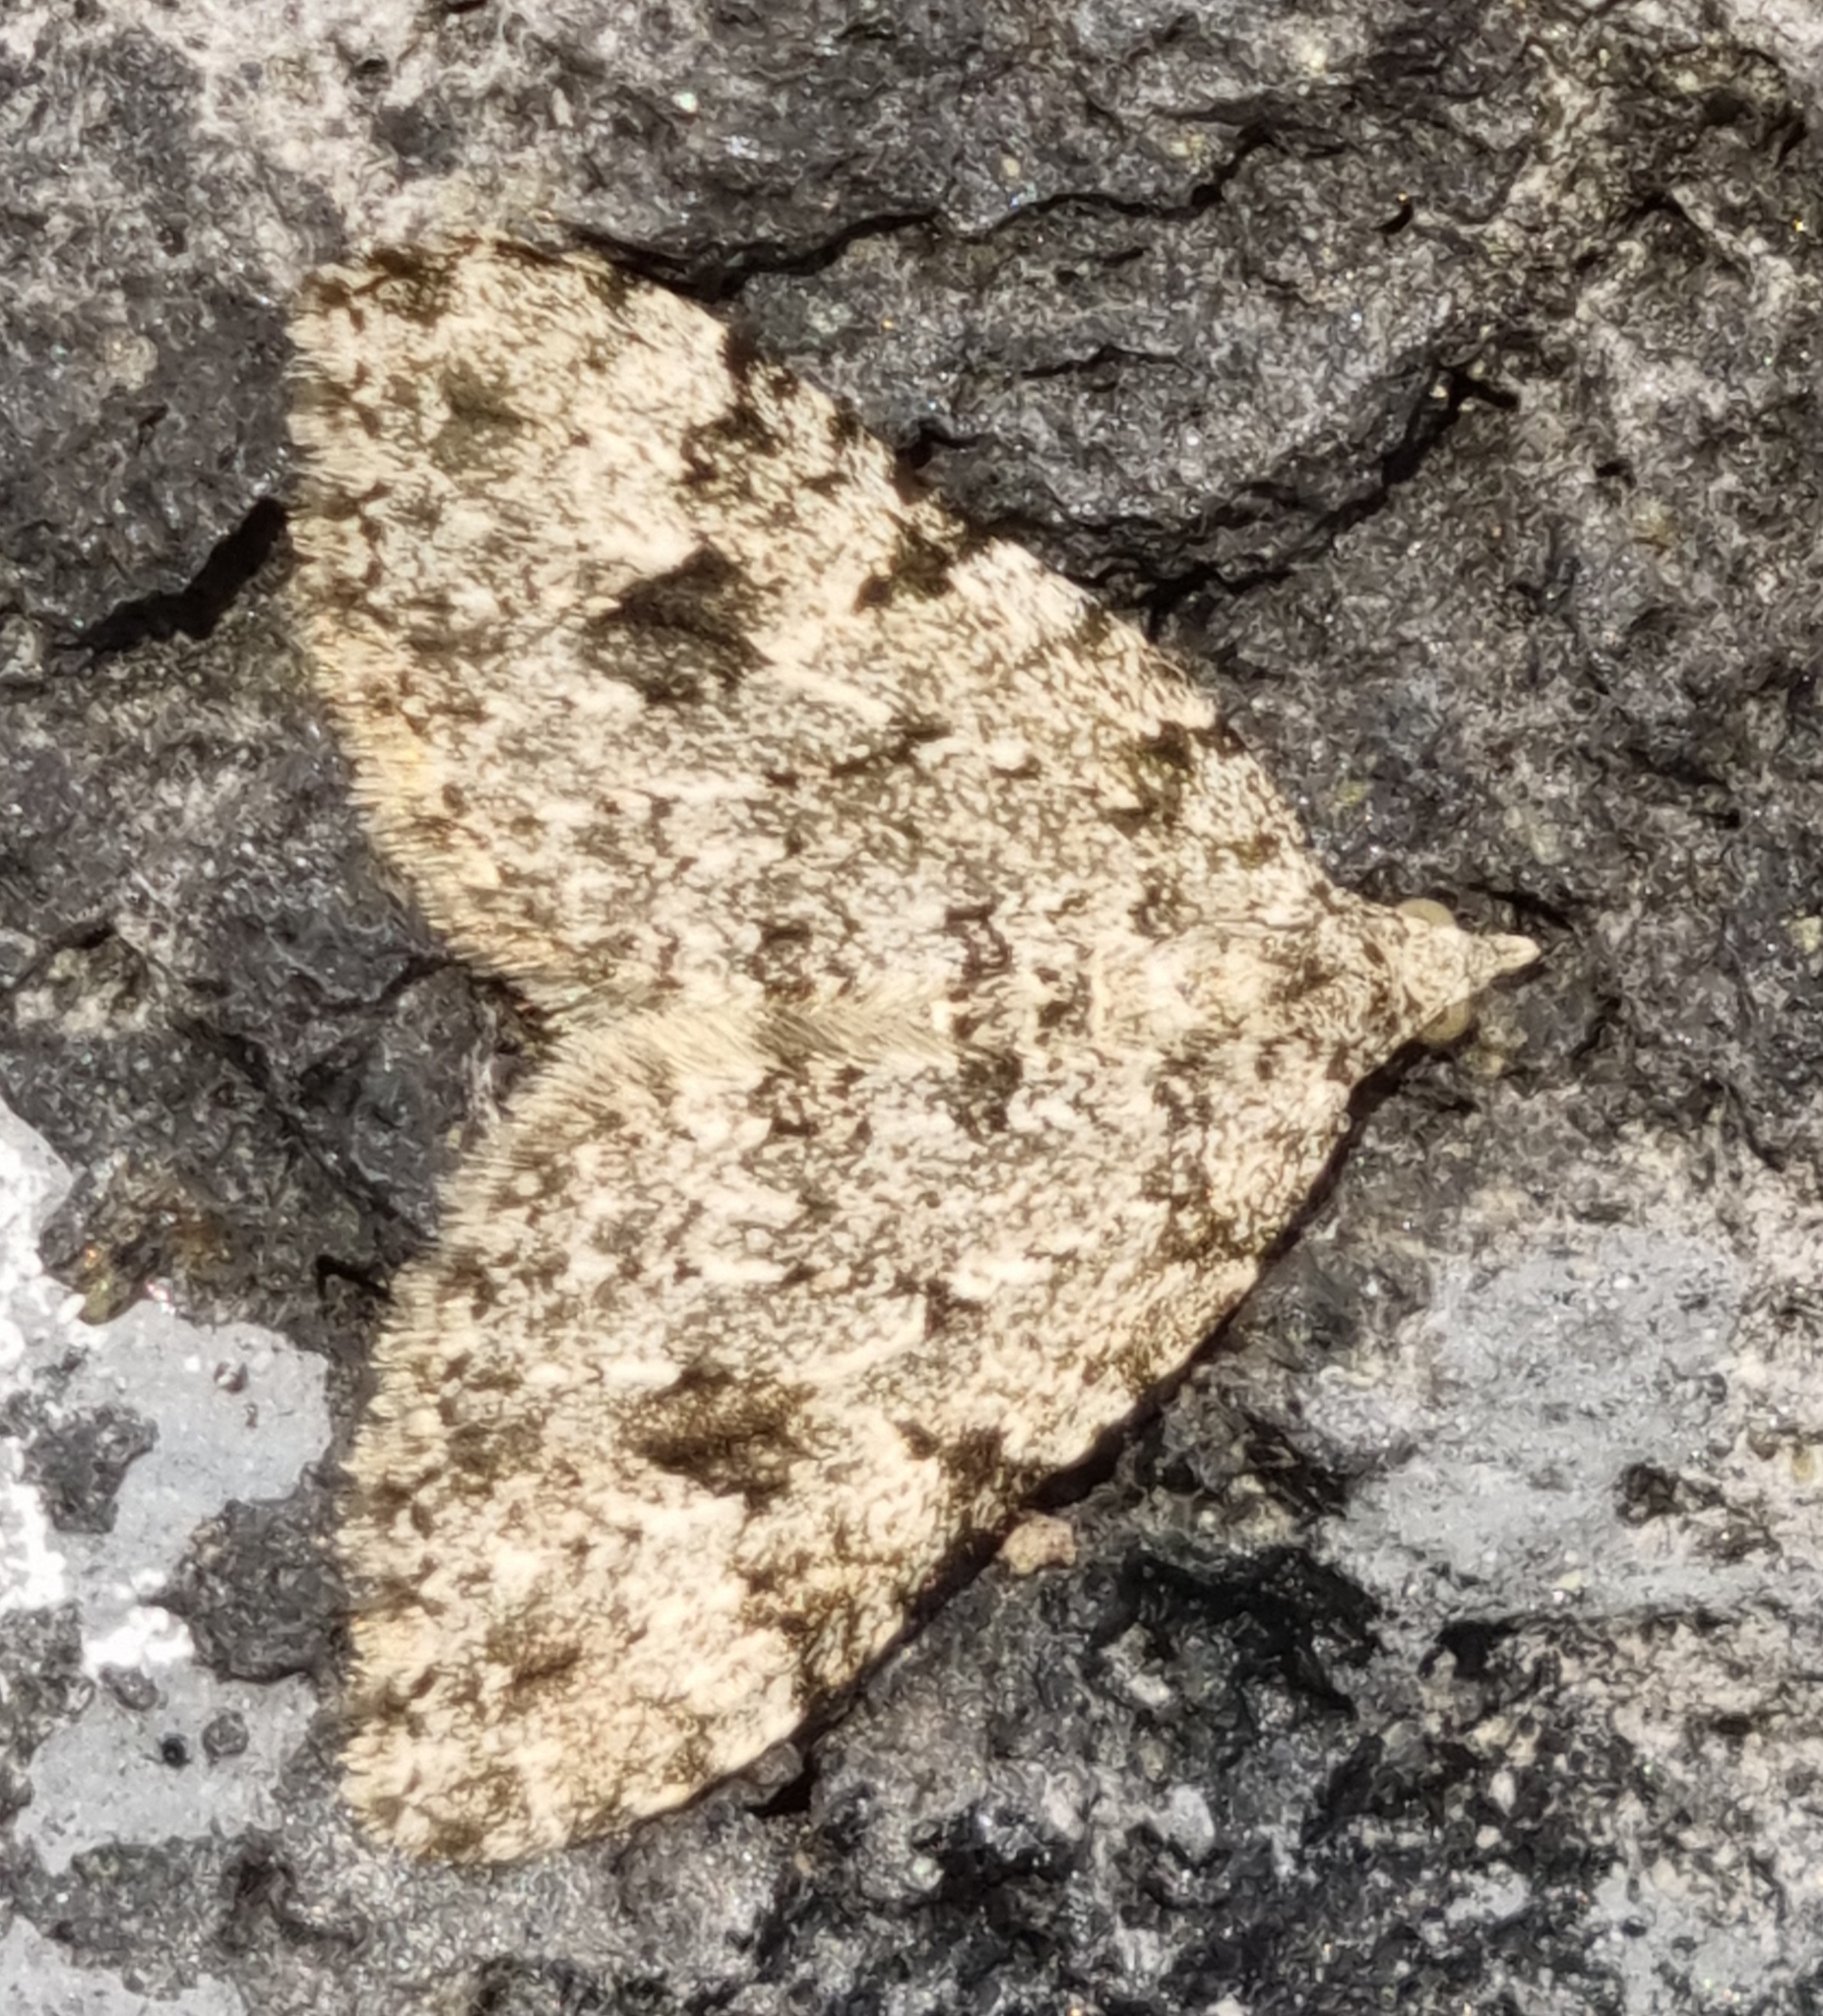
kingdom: Animalia
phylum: Arthropoda
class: Insecta
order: Lepidoptera
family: Geometridae
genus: Helastia
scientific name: Helastia cinerearia
